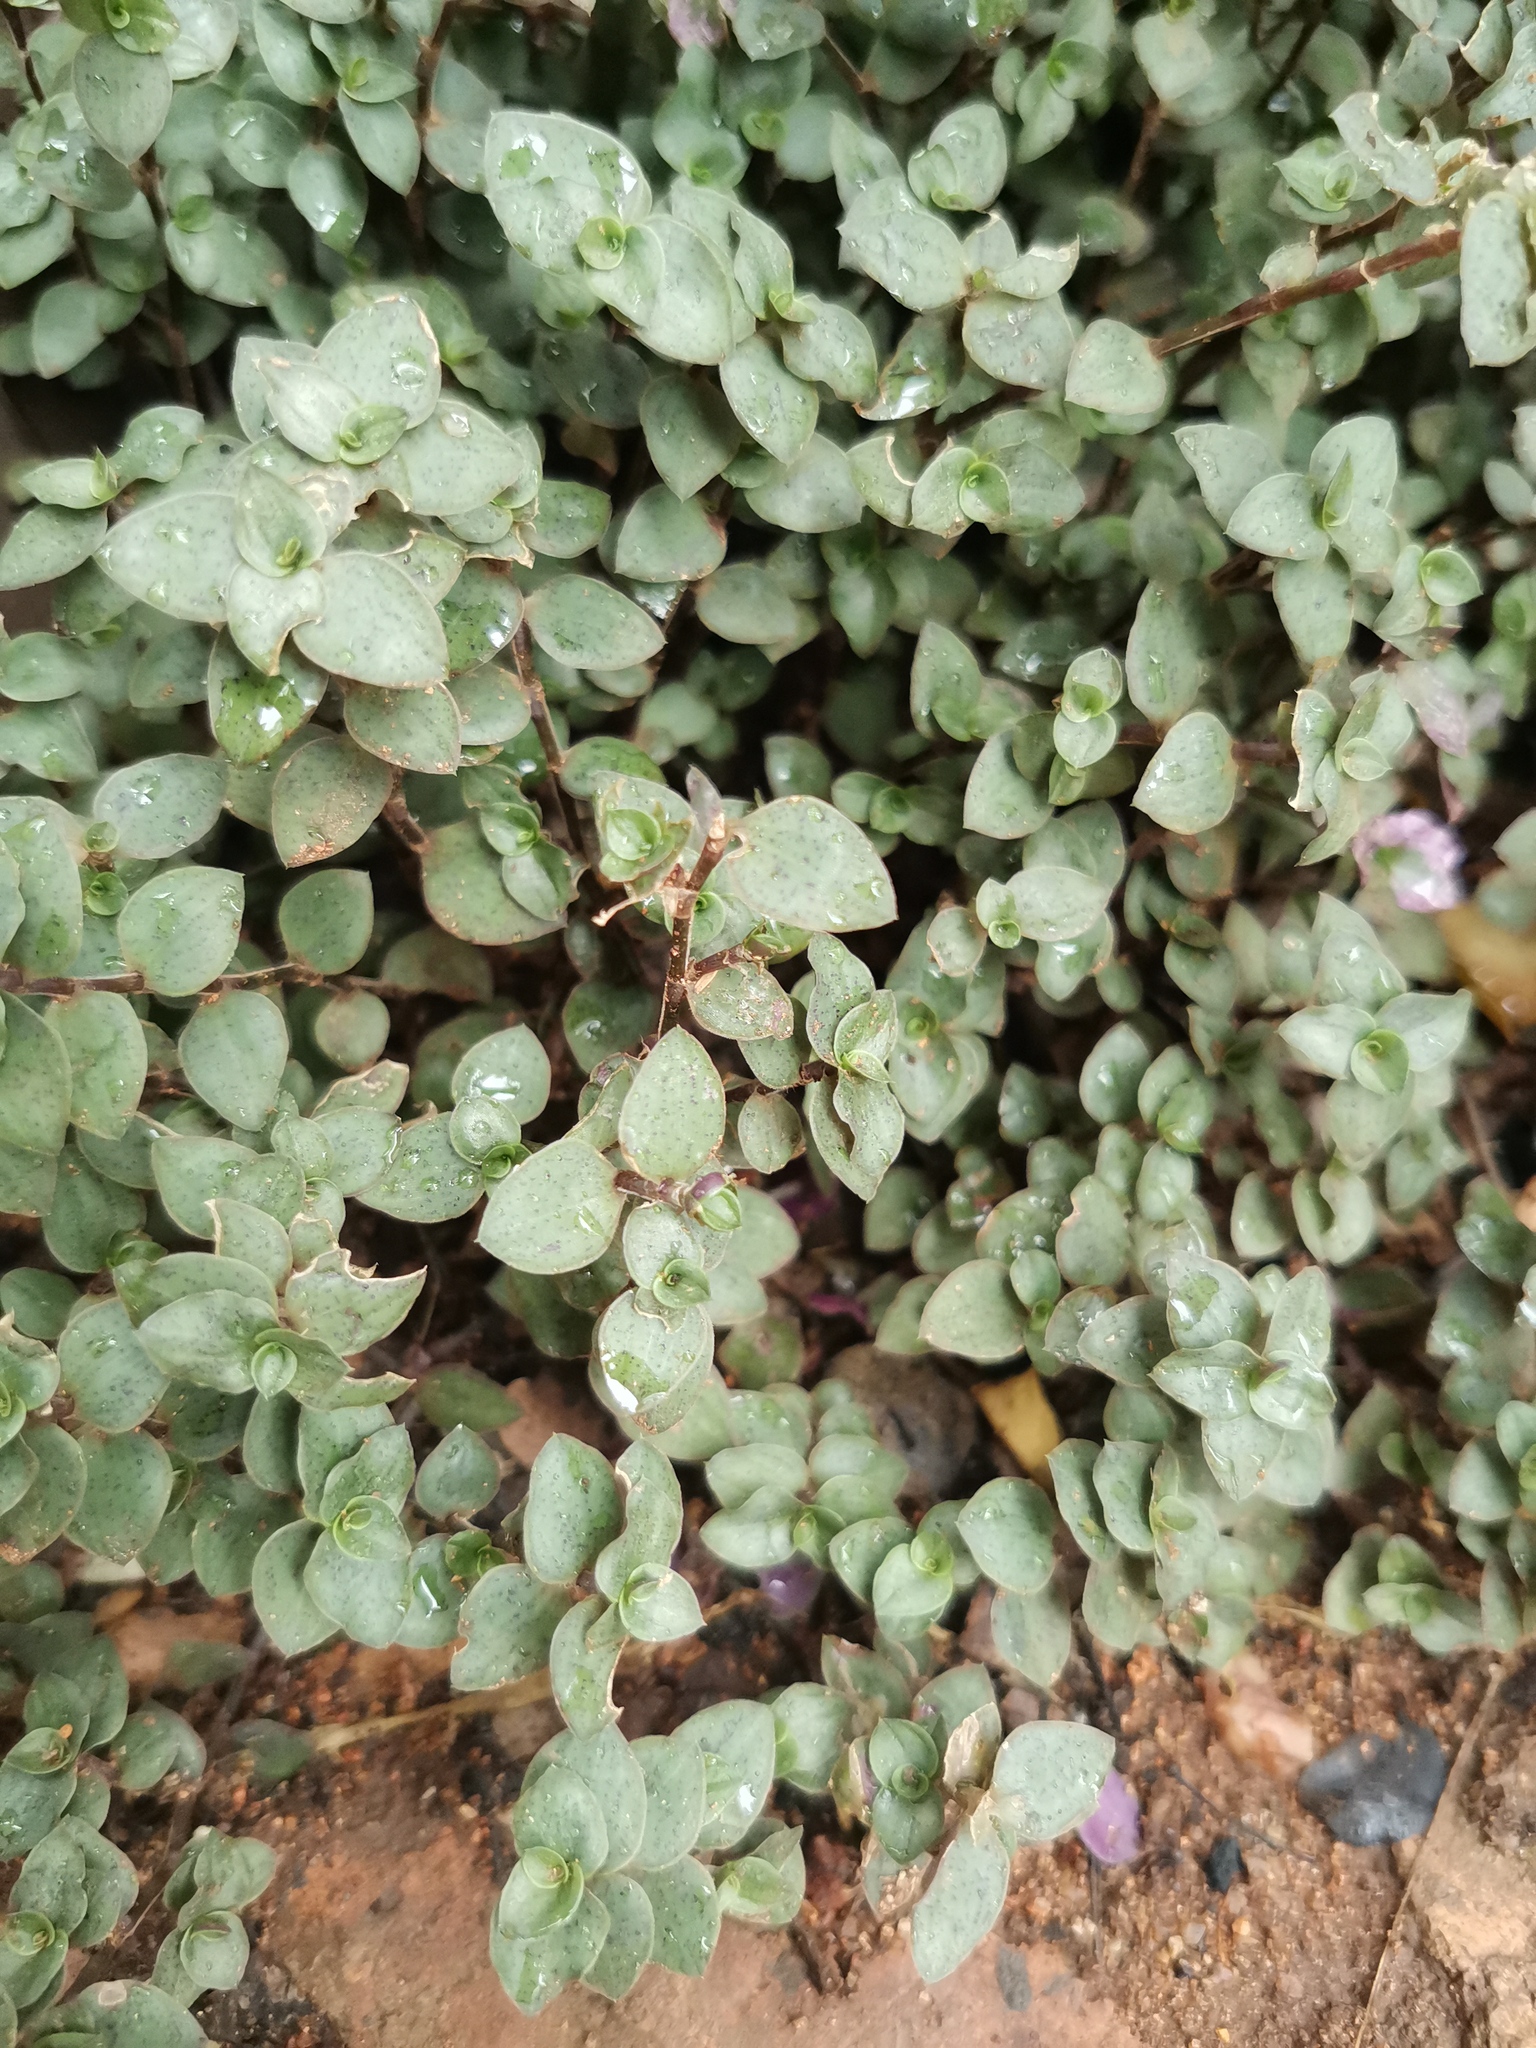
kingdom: Plantae
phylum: Tracheophyta
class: Liliopsida
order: Commelinales
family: Commelinaceae
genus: Callisia
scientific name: Callisia repens
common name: Creeping inchplant
